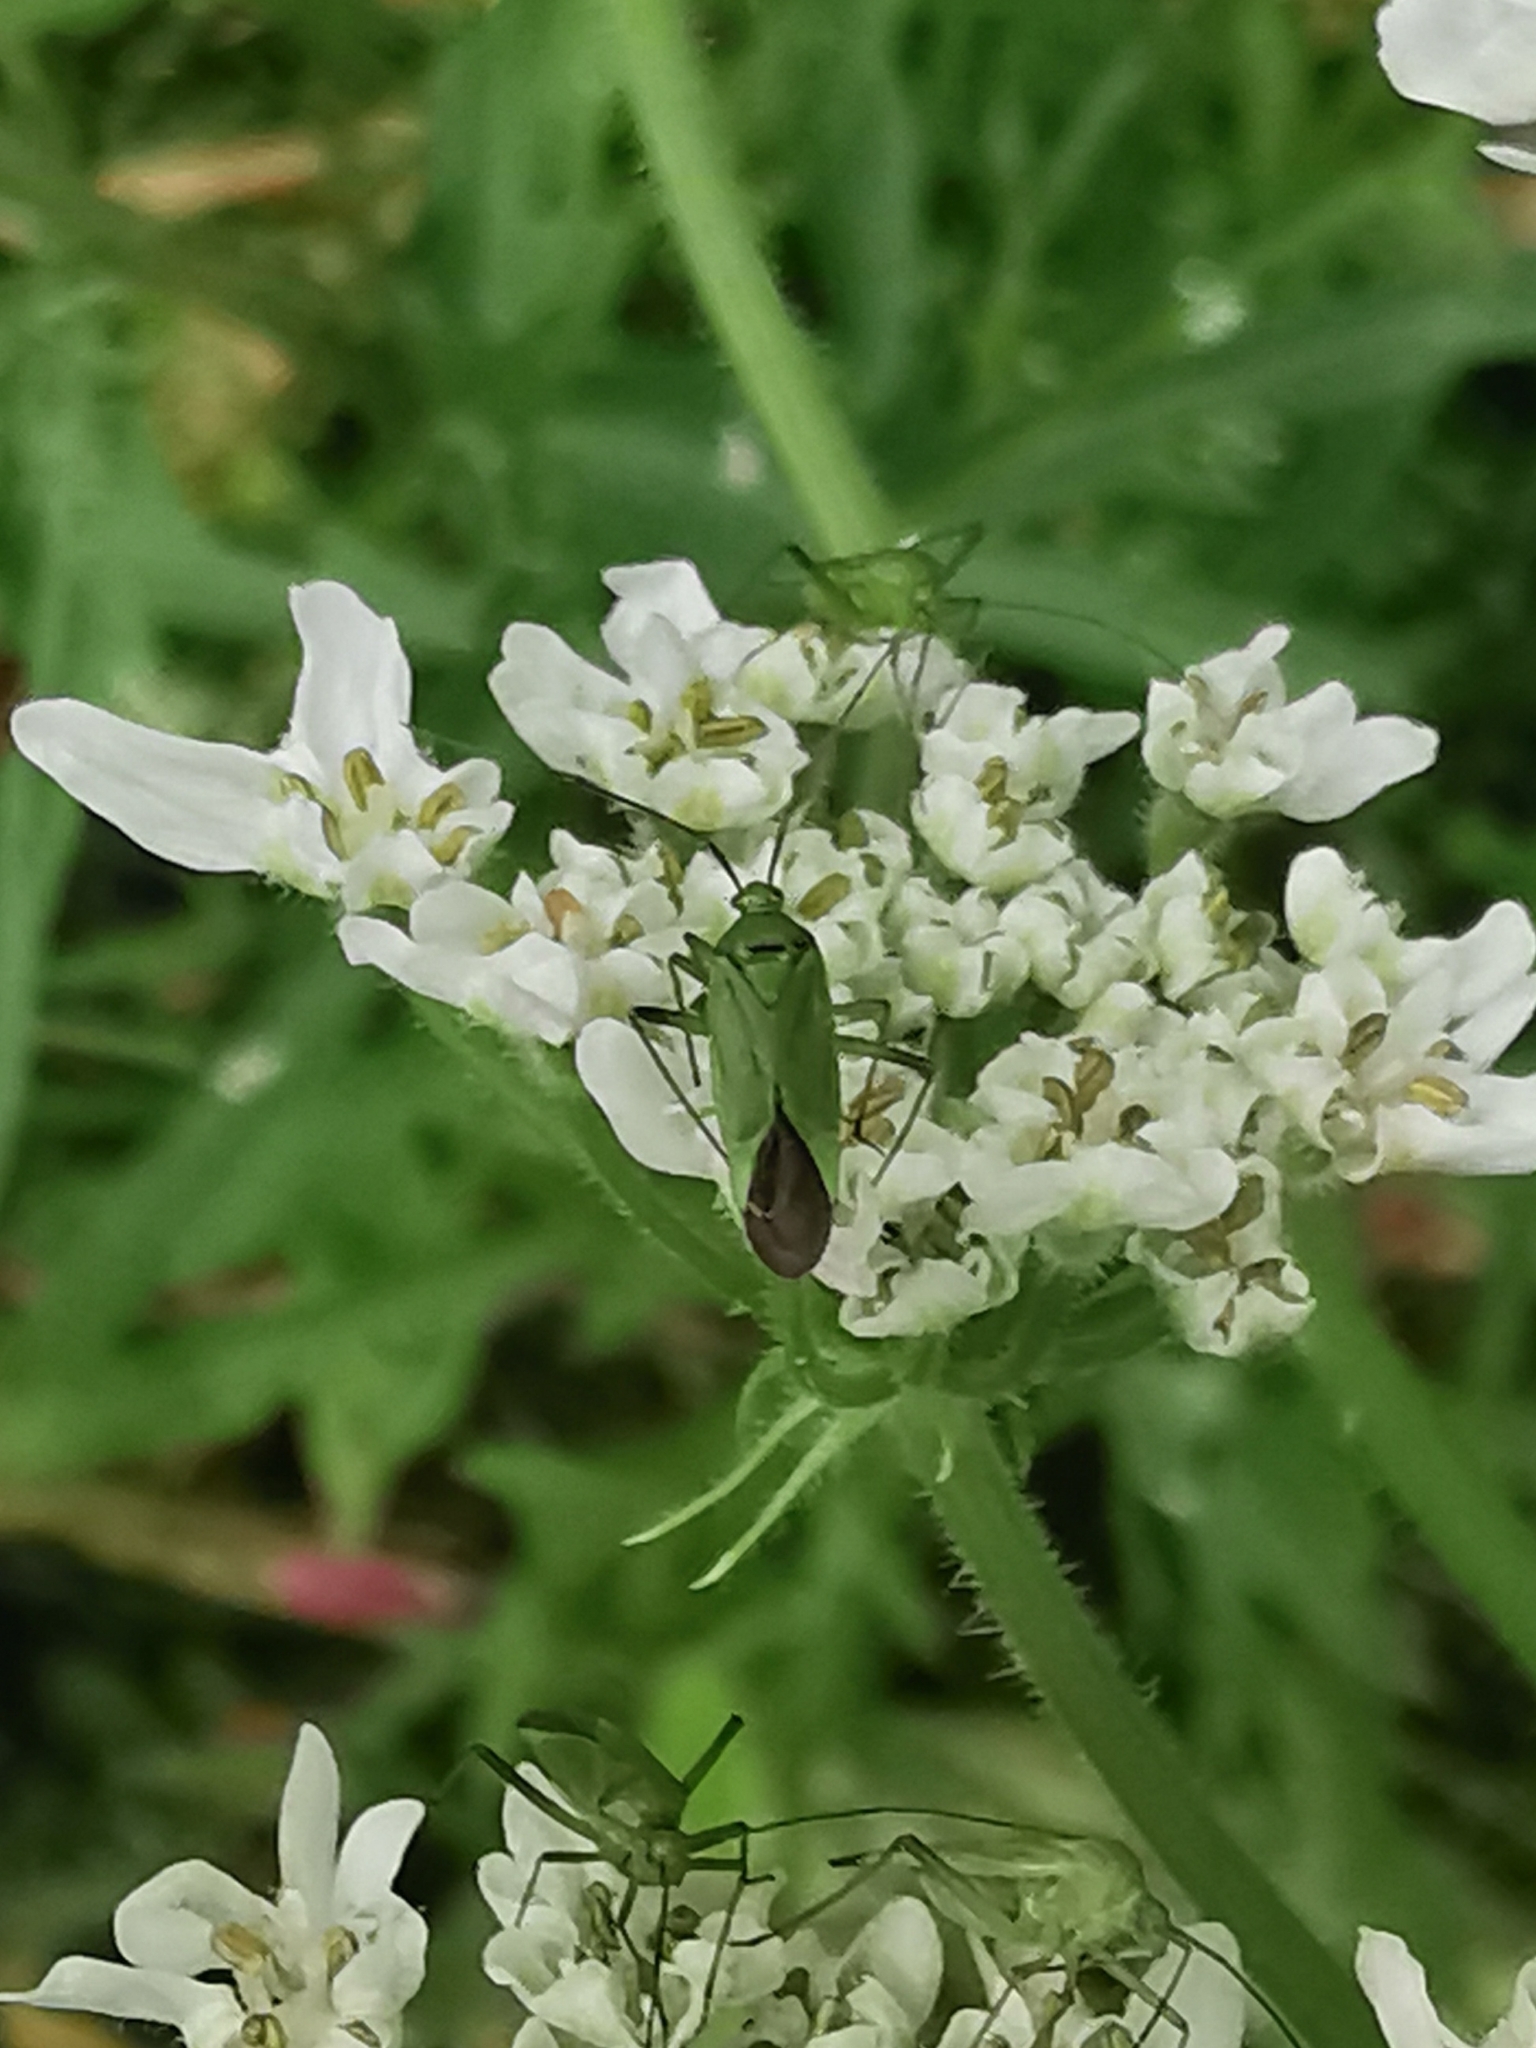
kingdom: Animalia
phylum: Arthropoda
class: Insecta
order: Hemiptera
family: Miridae
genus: Calocoris
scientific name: Calocoris affinis
